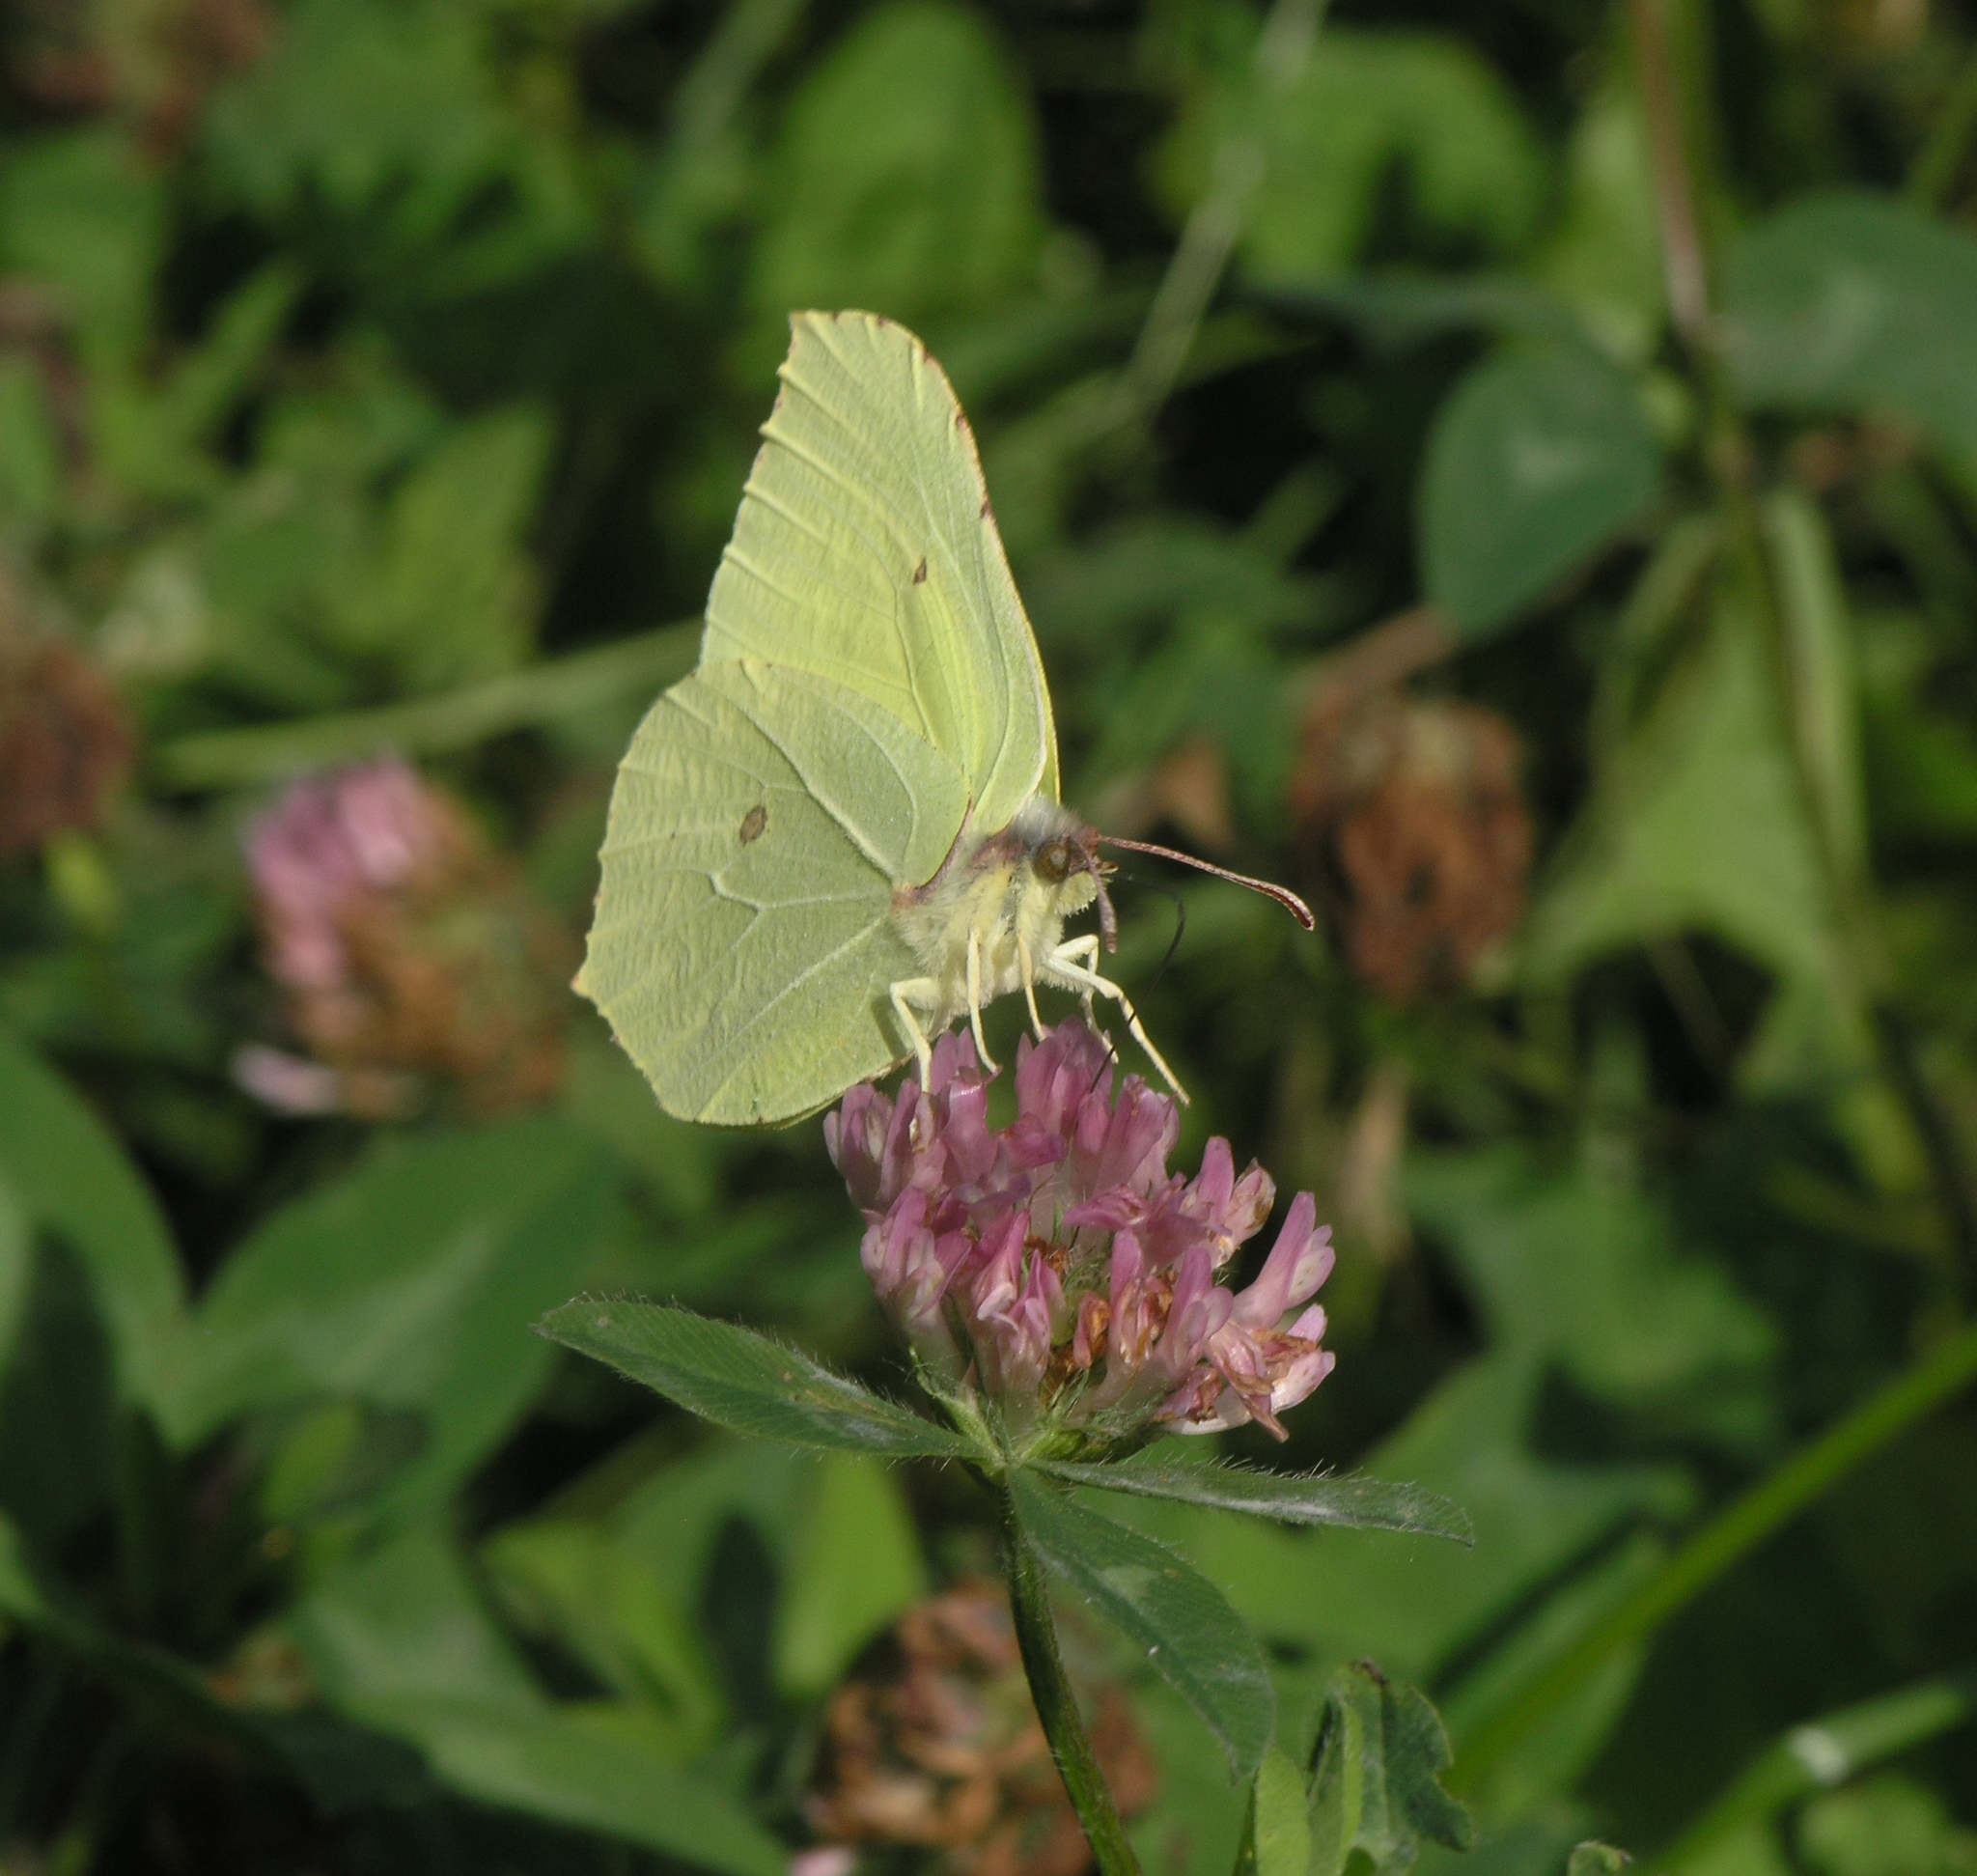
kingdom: Plantae
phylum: Tracheophyta
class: Magnoliopsida
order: Fabales
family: Fabaceae
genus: Trifolium
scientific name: Trifolium pratense
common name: Red clover
